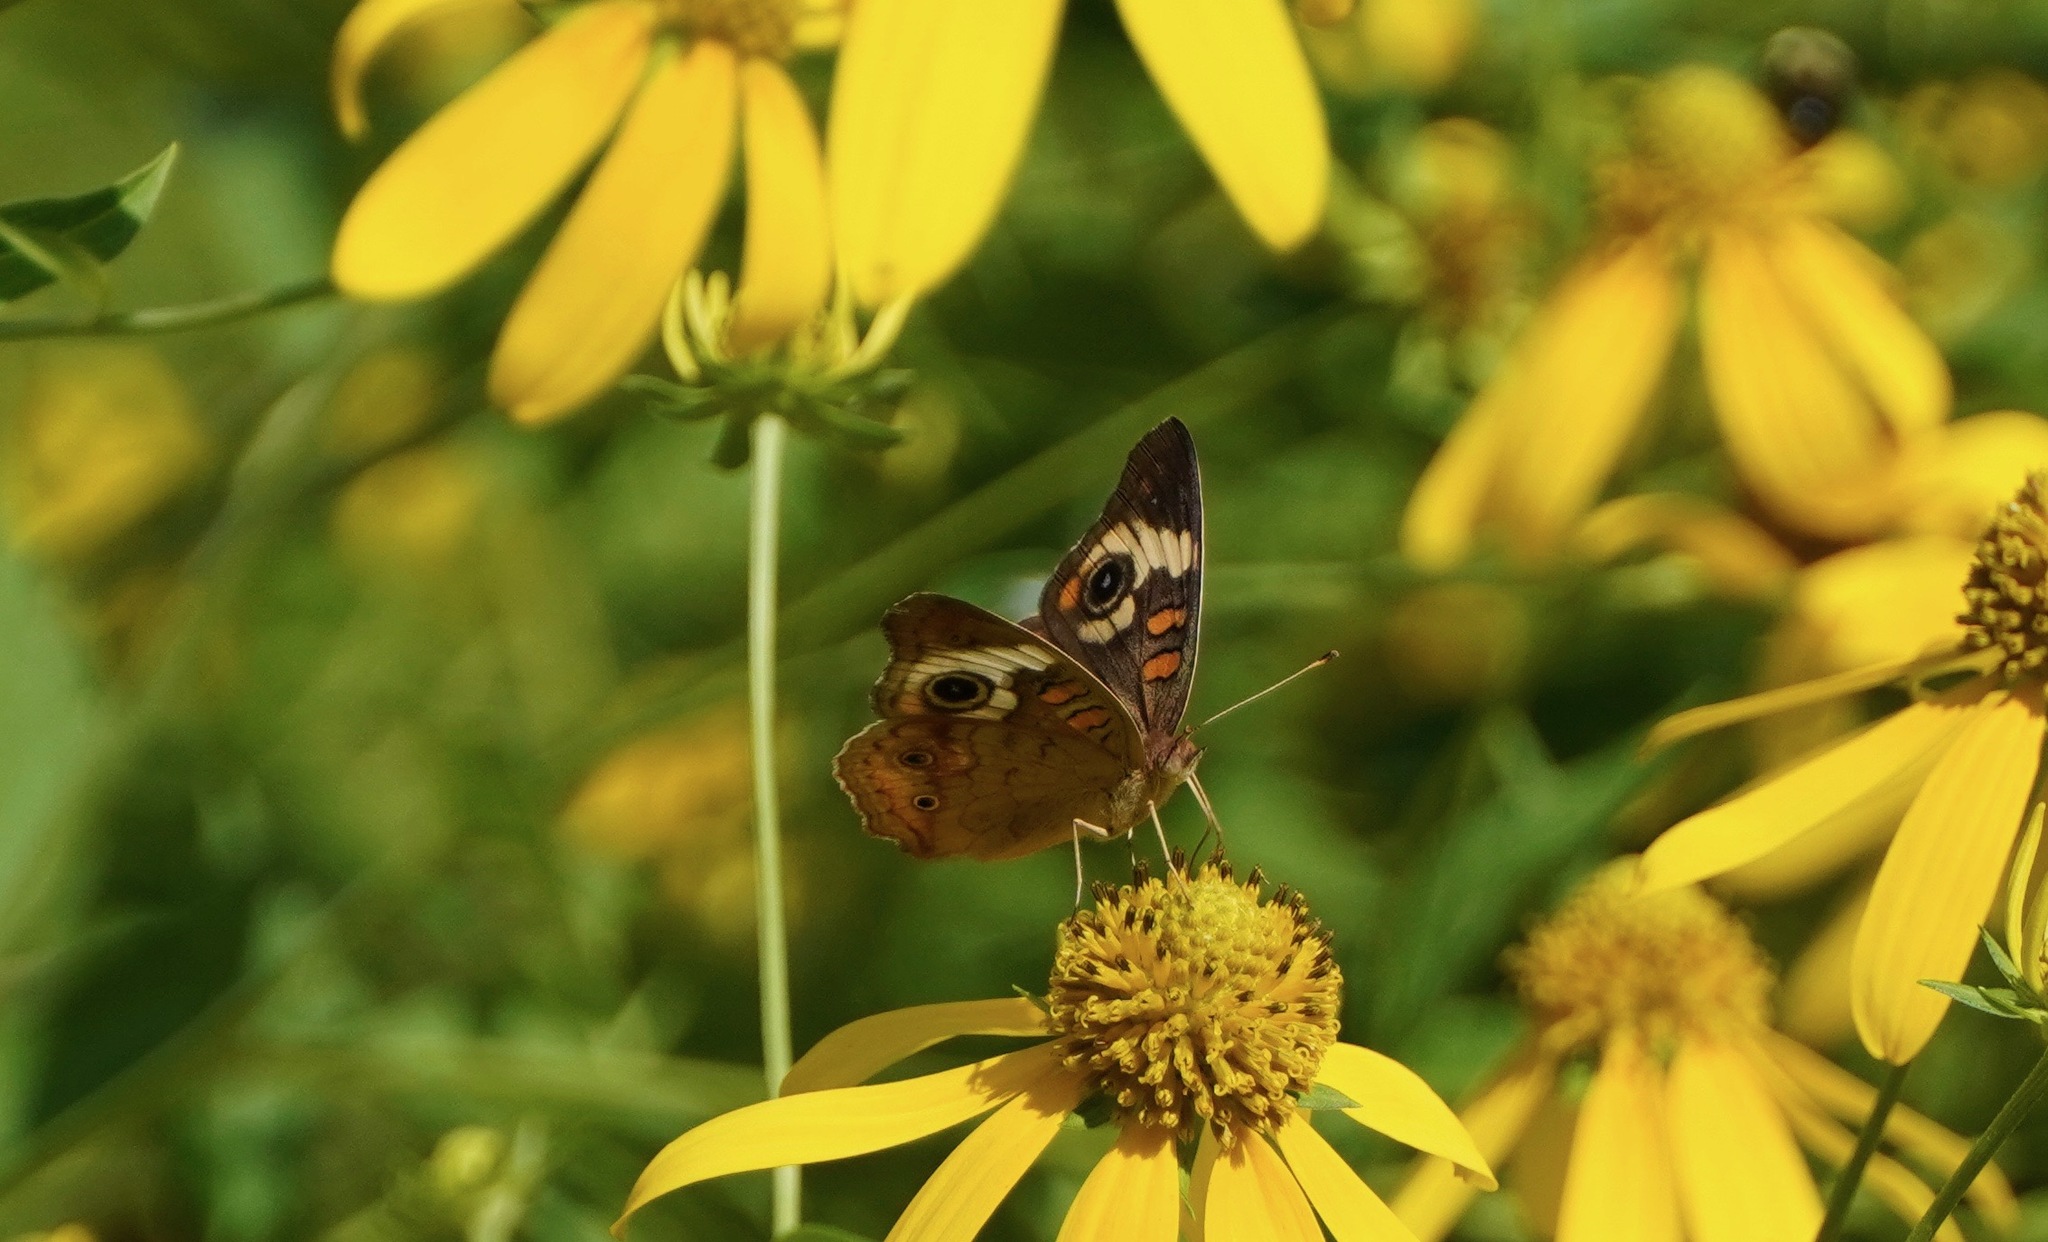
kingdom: Animalia
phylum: Arthropoda
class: Insecta
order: Lepidoptera
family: Nymphalidae
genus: Junonia
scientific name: Junonia coenia
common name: Common buckeye
